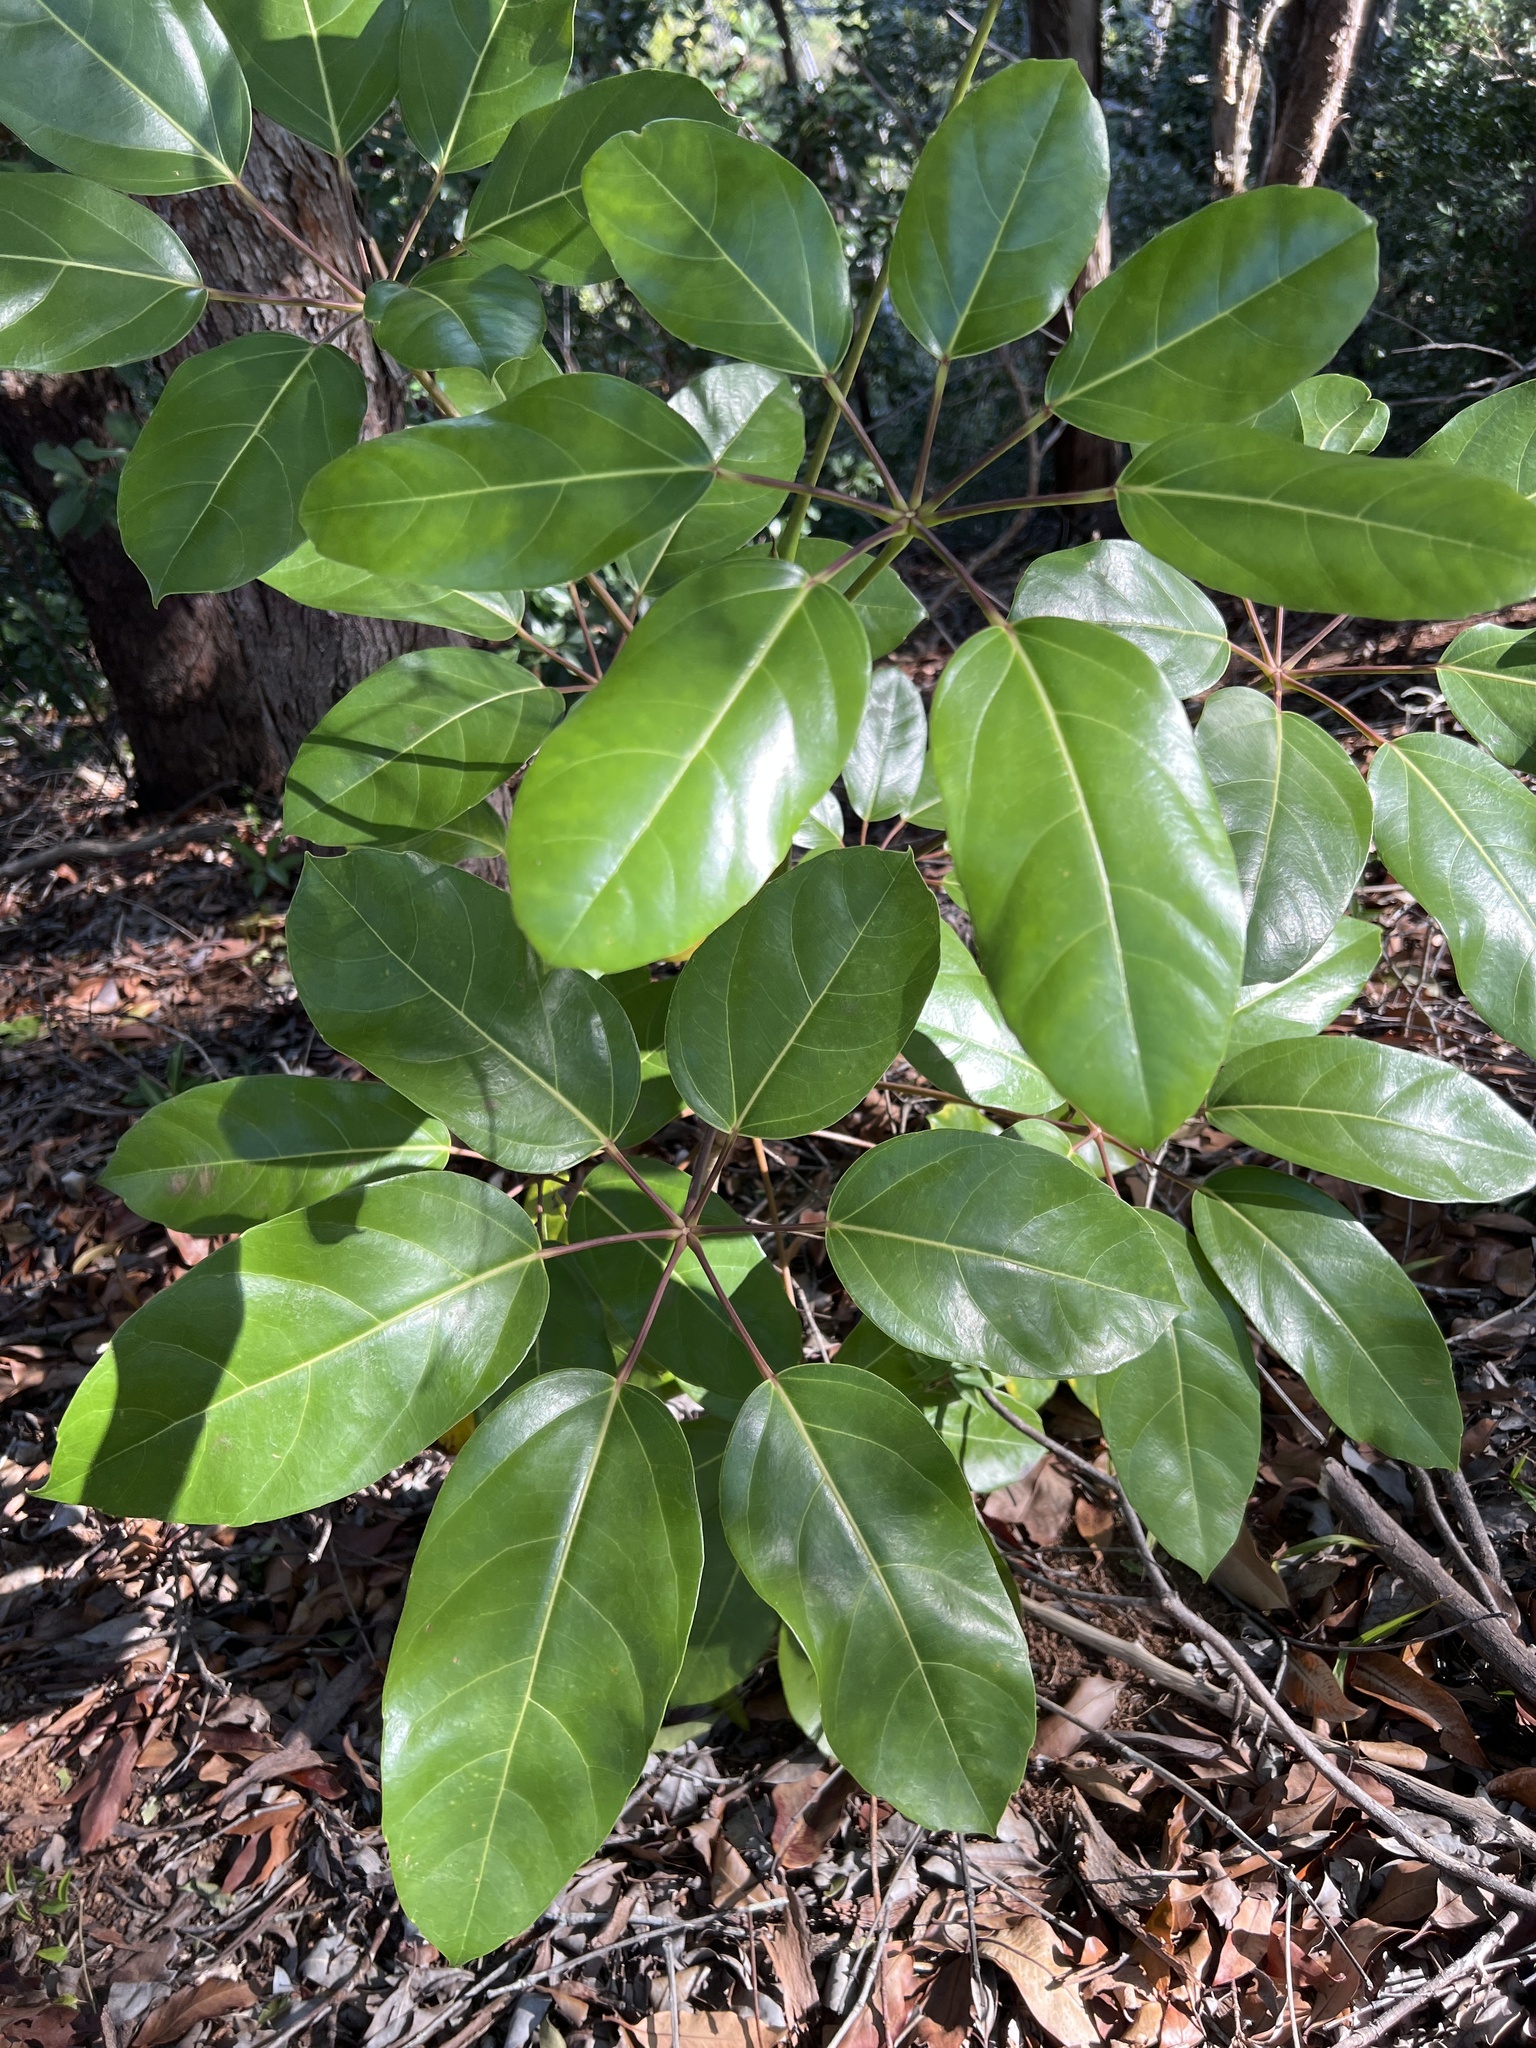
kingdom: Plantae
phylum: Tracheophyta
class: Magnoliopsida
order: Apiales
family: Araliaceae
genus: Heptapleurum
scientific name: Heptapleurum actinophyllum
